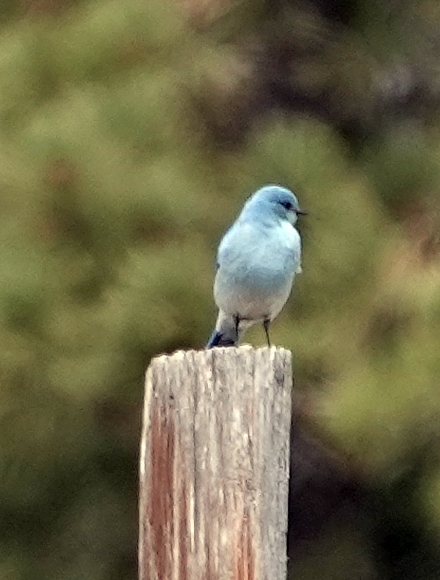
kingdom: Animalia
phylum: Chordata
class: Aves
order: Passeriformes
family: Turdidae
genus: Sialia
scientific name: Sialia currucoides
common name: Mountain bluebird
